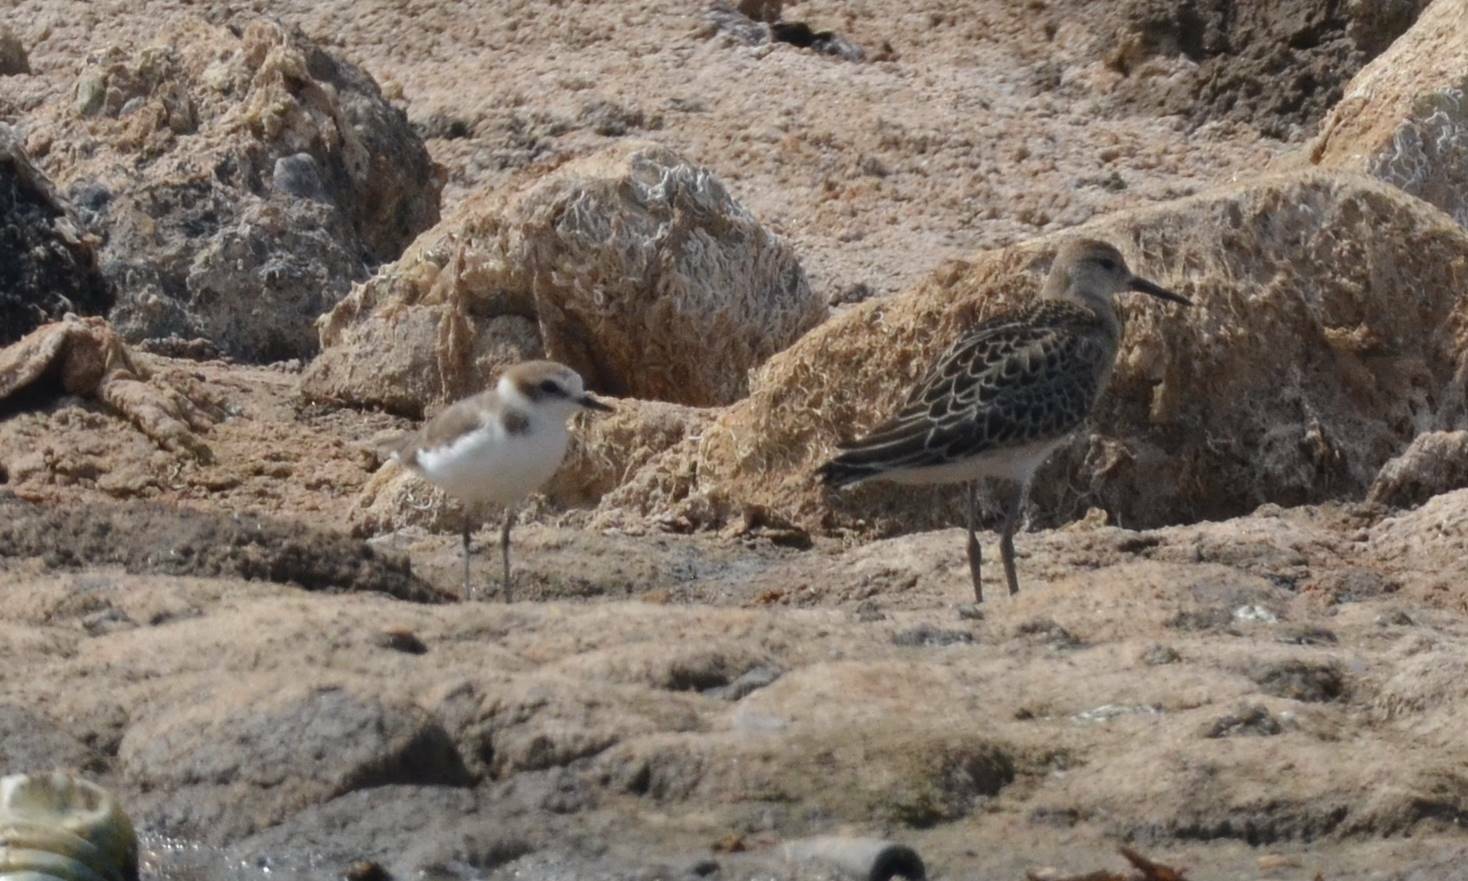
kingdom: Animalia
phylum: Chordata
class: Aves
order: Charadriiformes
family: Charadriidae
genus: Charadrius
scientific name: Charadrius alexandrinus
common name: Kentish plover
